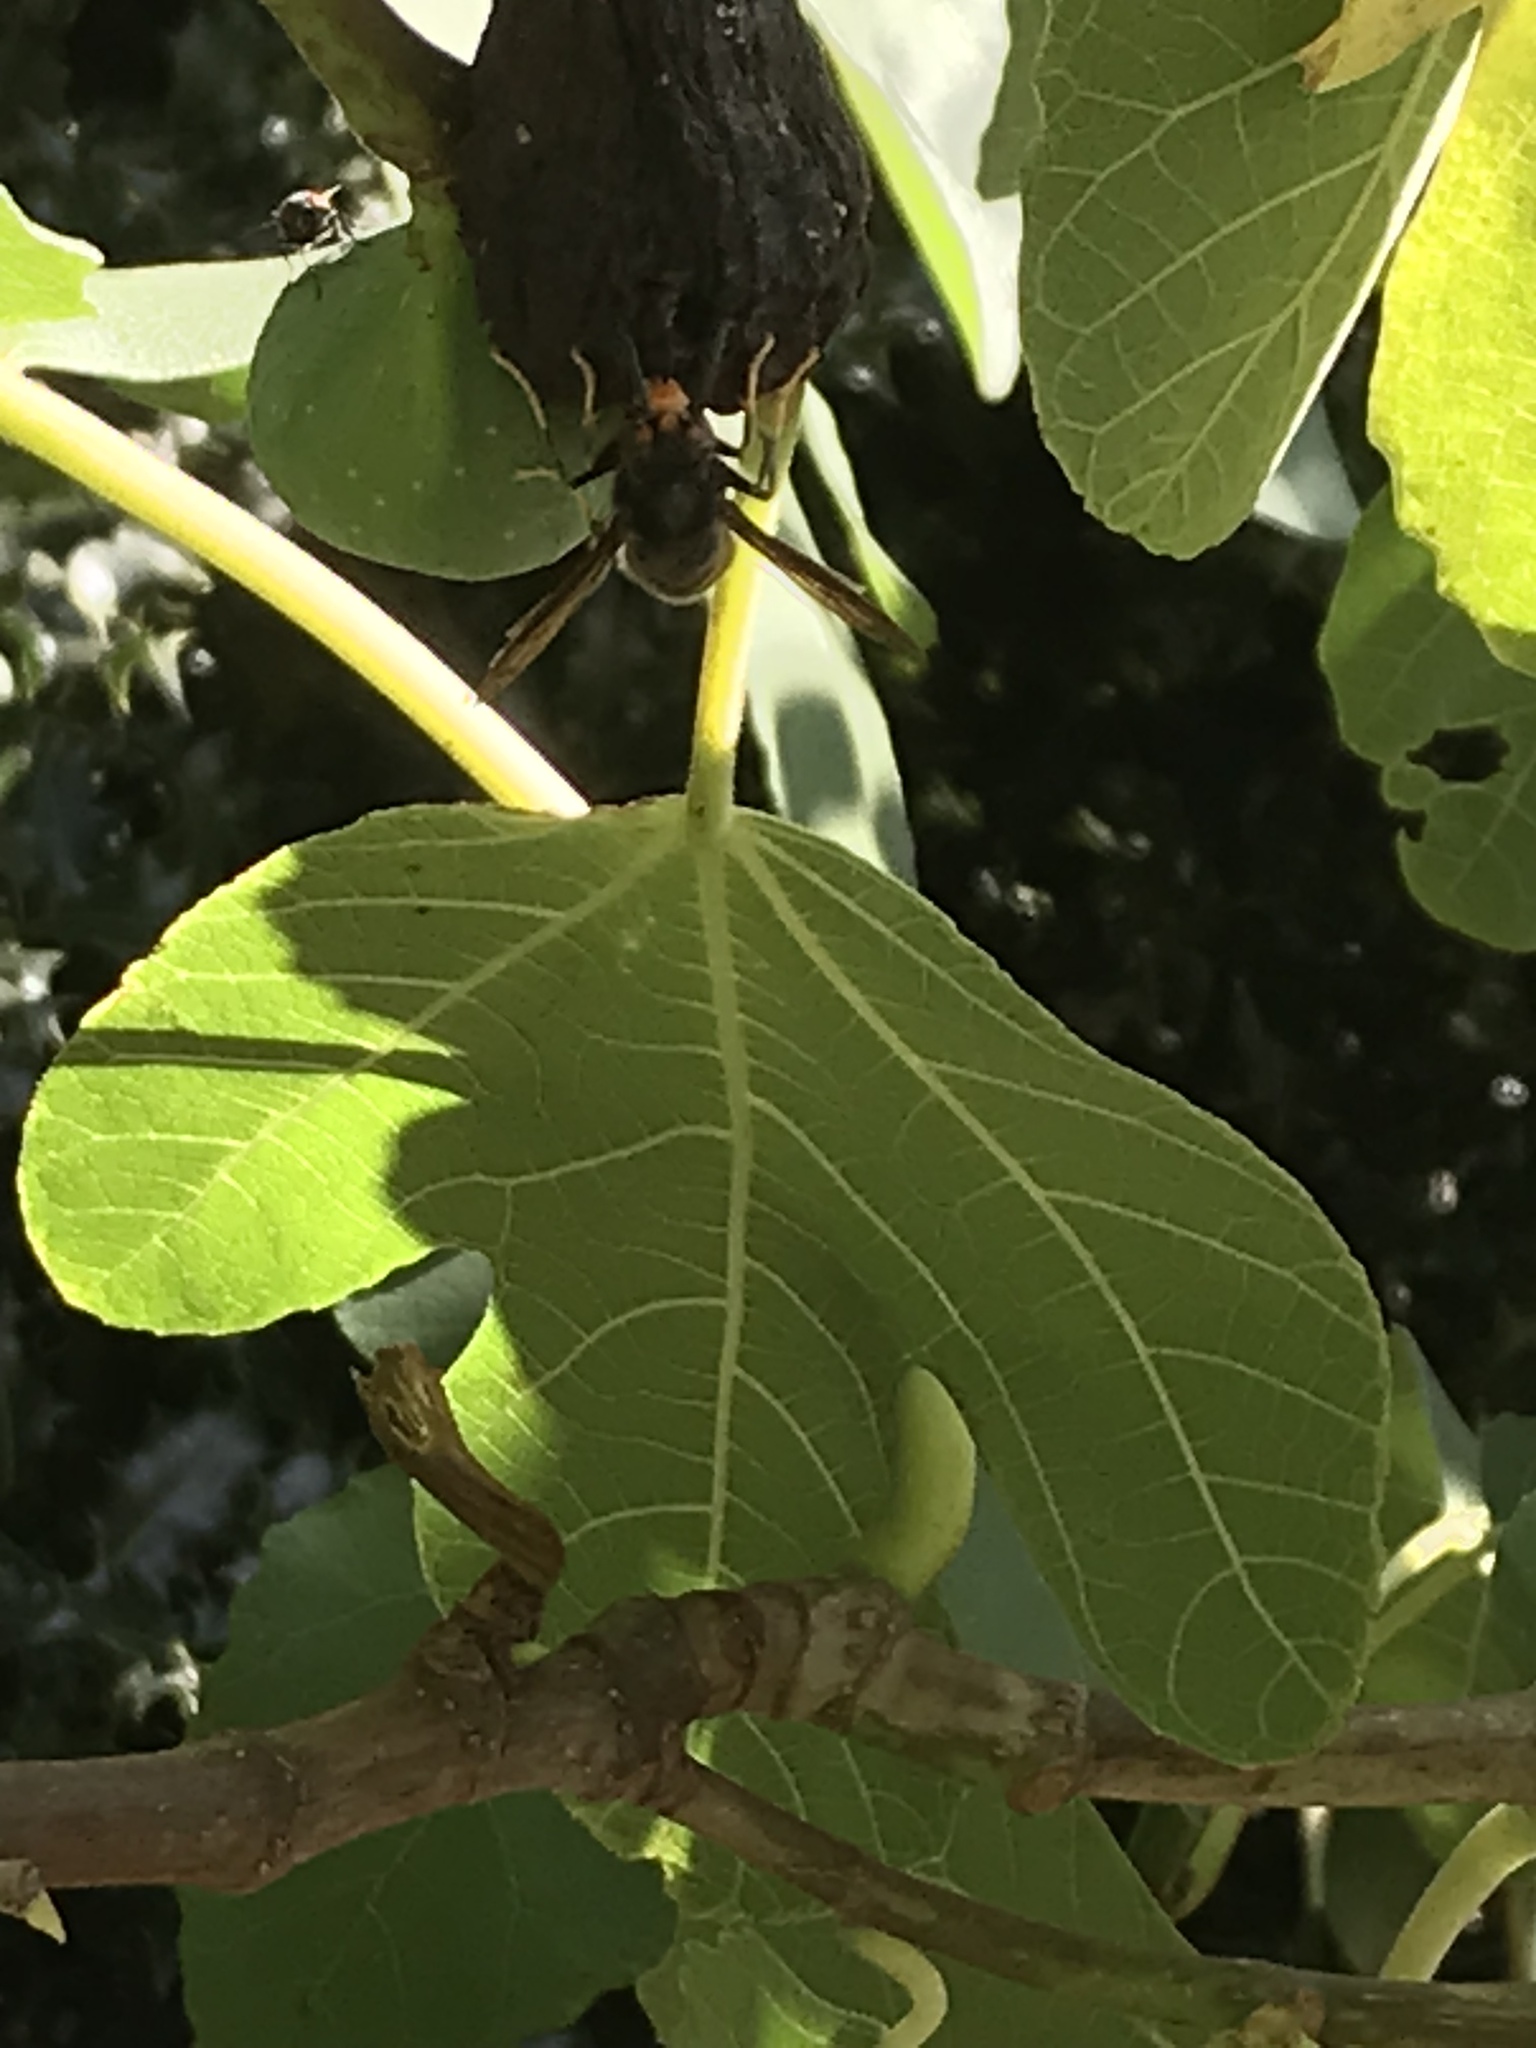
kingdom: Animalia
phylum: Arthropoda
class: Insecta
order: Hymenoptera
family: Vespidae
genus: Vespa
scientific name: Vespa velutina
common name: Asian hornet
